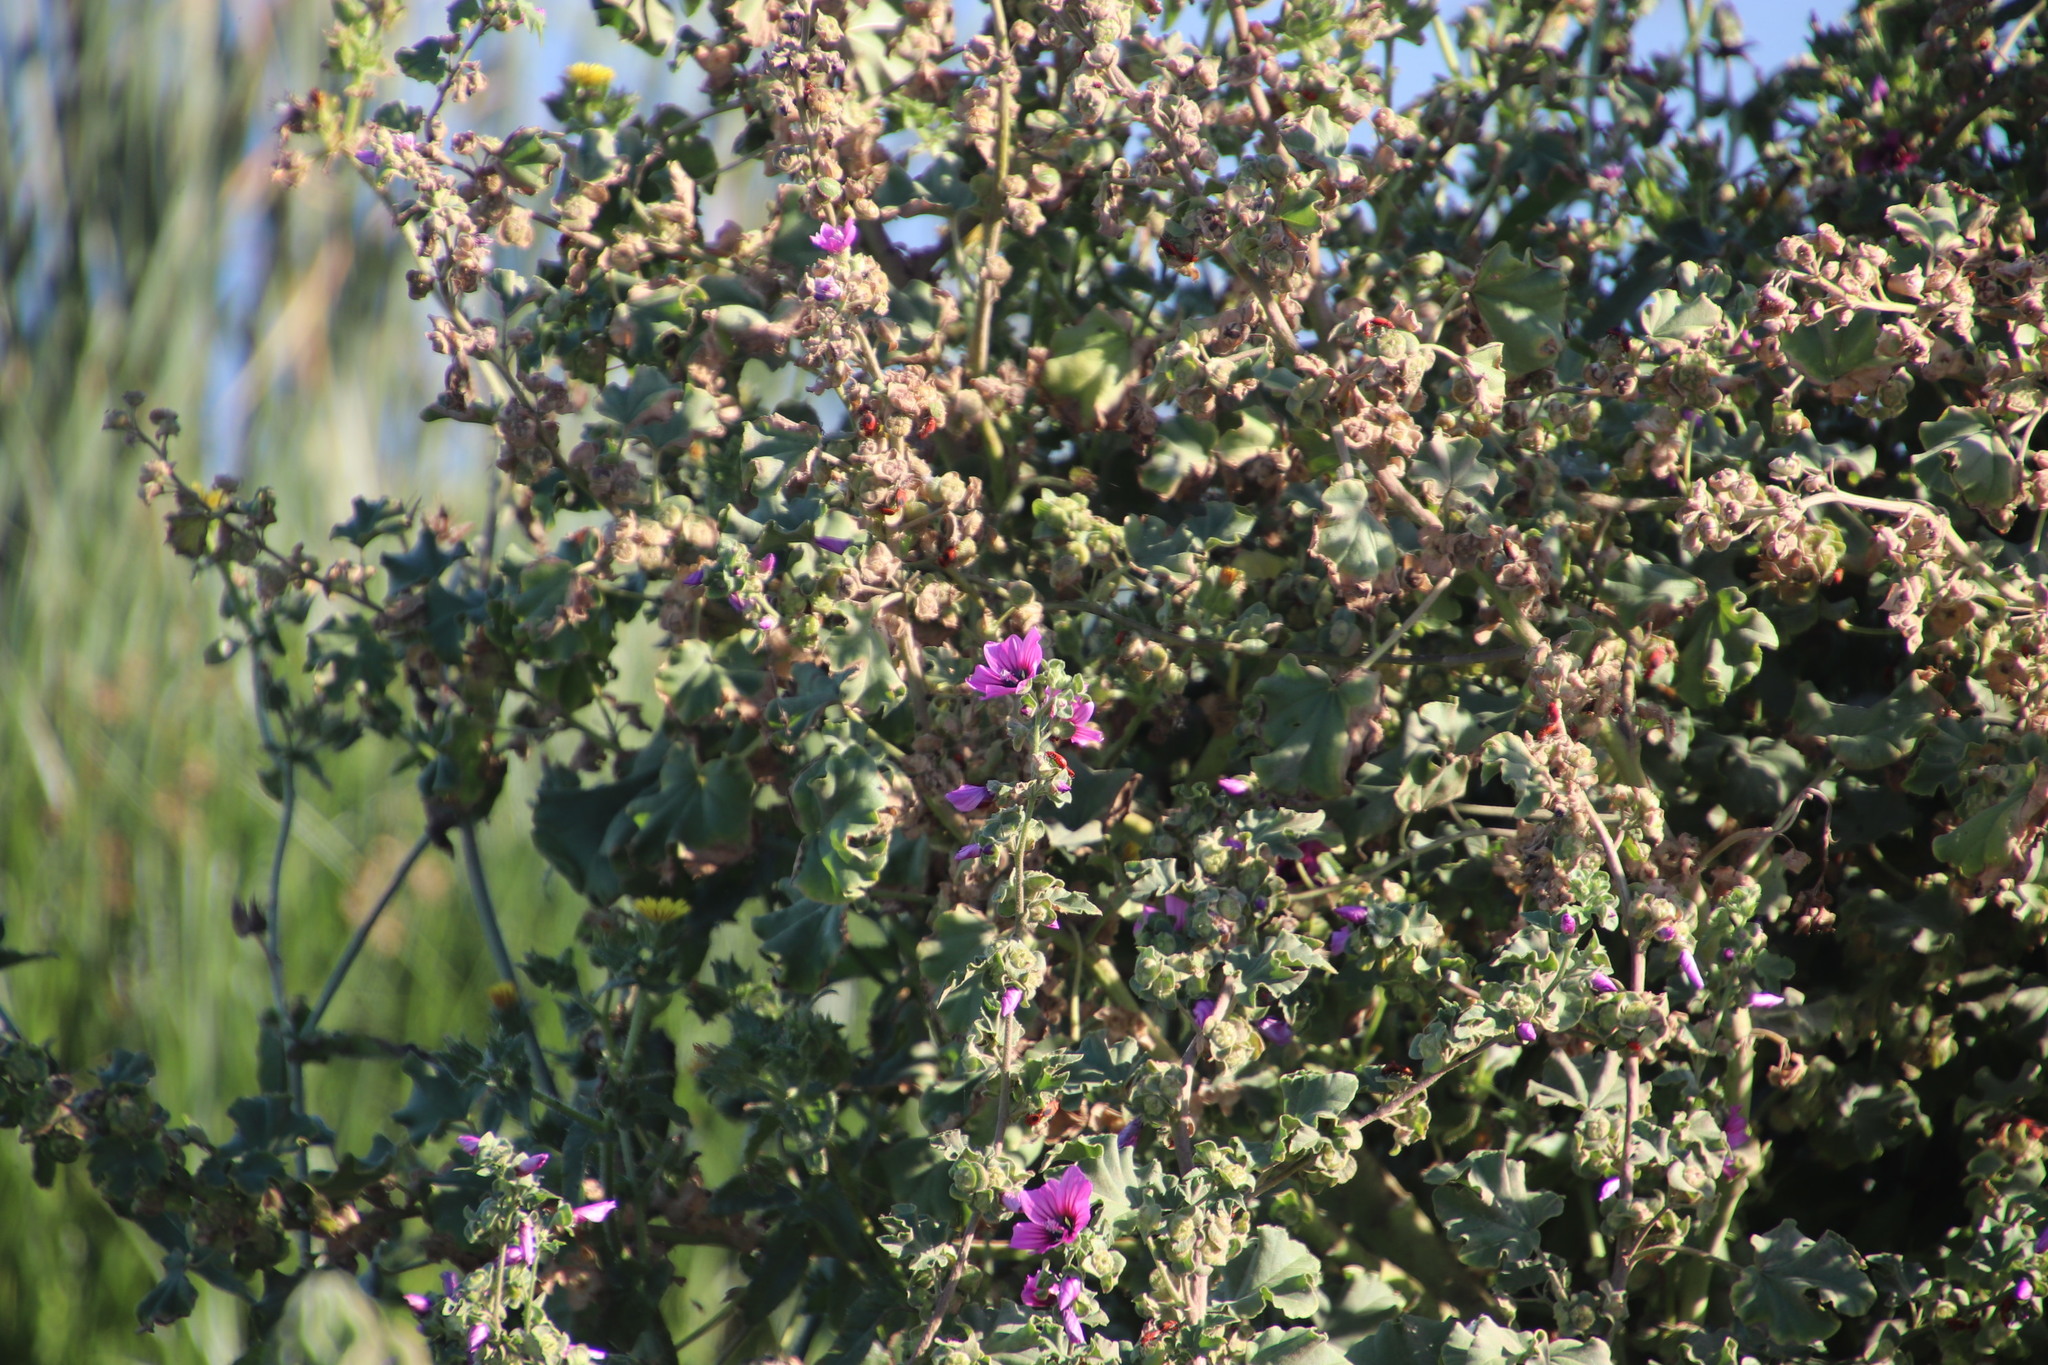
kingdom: Plantae
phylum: Tracheophyta
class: Magnoliopsida
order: Malvales
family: Malvaceae
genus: Malva
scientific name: Malva arborea
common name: Tree mallow
